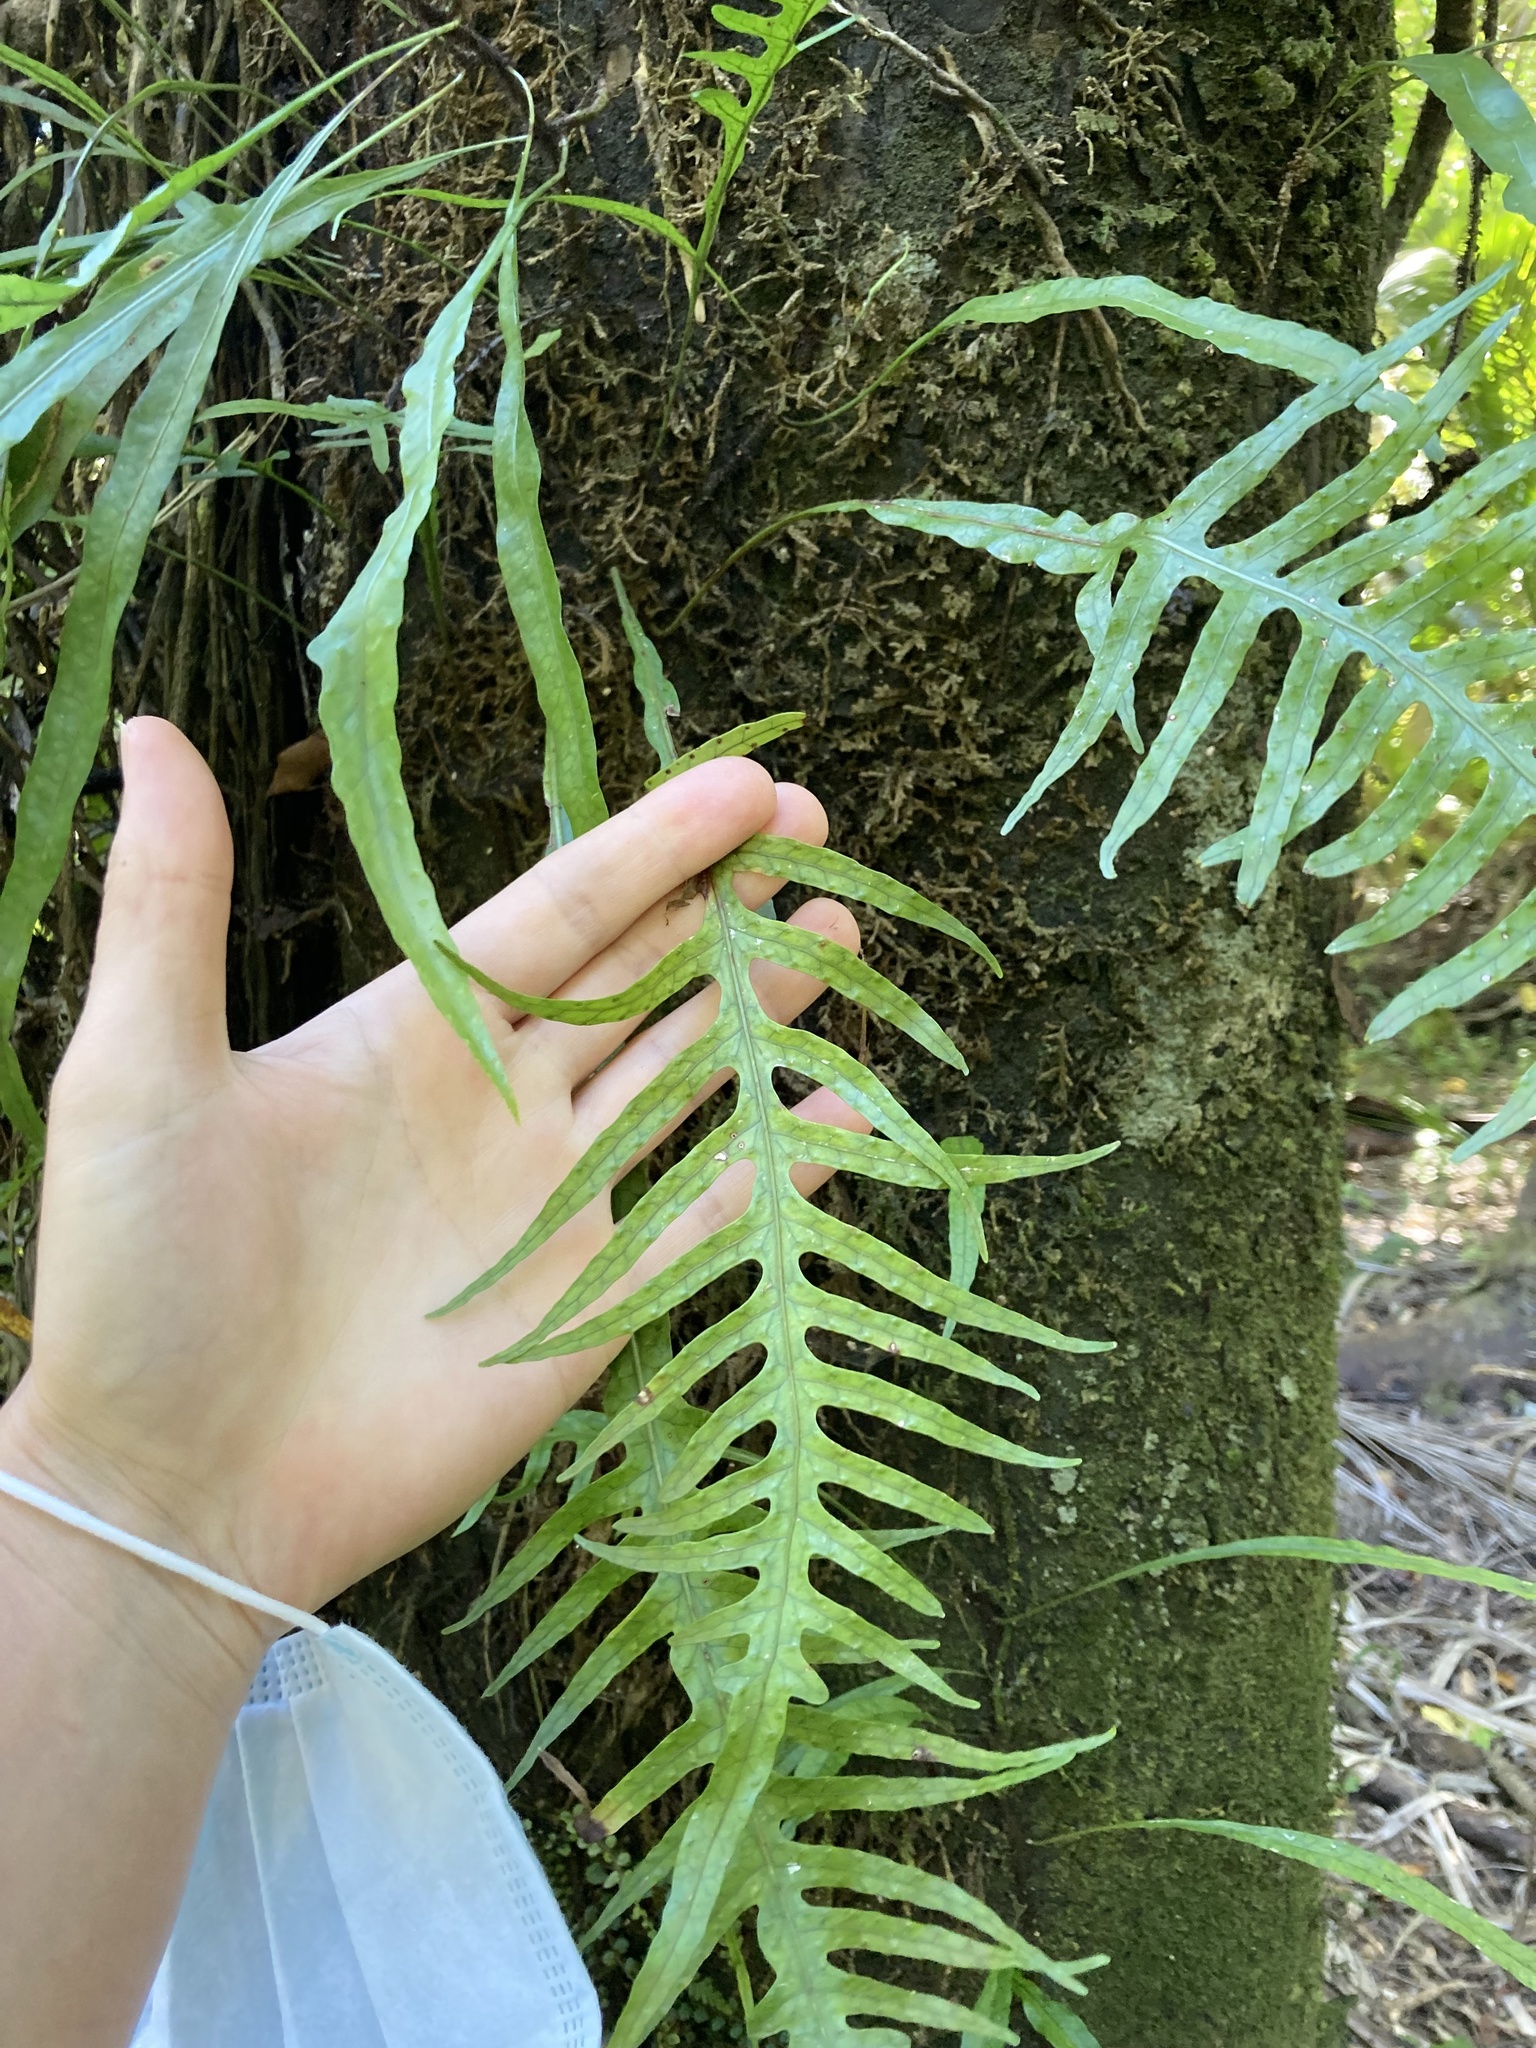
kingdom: Plantae
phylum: Tracheophyta
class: Polypodiopsida
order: Polypodiales
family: Polypodiaceae
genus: Lecanopteris
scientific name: Lecanopteris scandens
